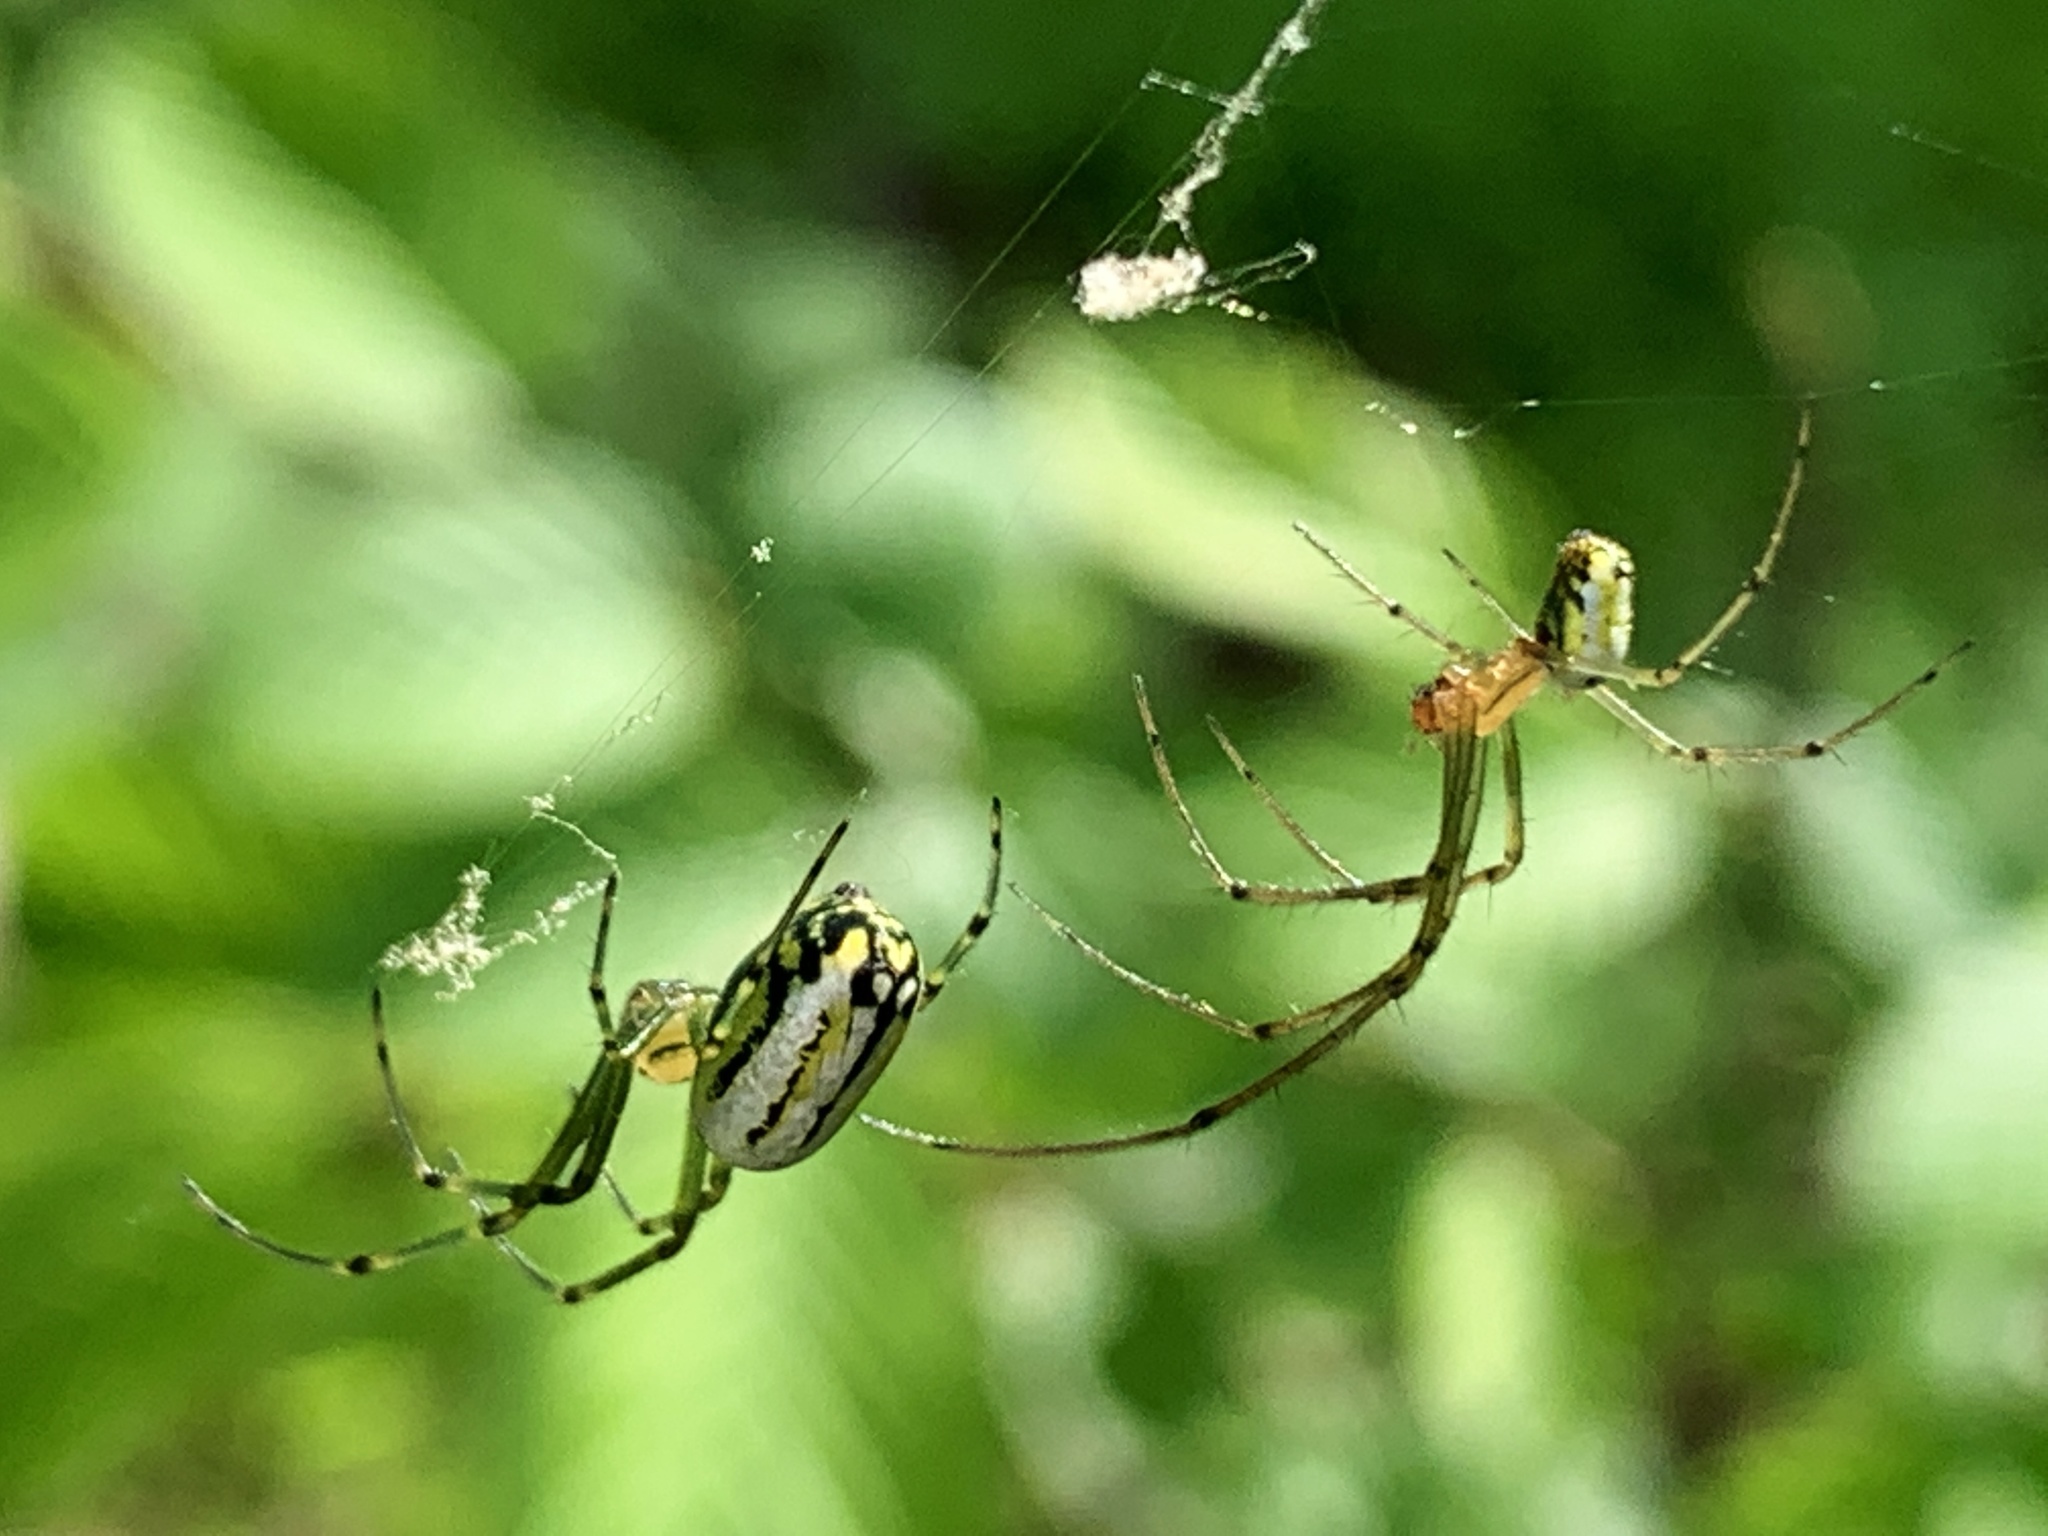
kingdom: Animalia
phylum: Arthropoda
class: Arachnida
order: Araneae
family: Tetragnathidae
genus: Leucauge
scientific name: Leucauge venusta
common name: Longjawed orb weavers
